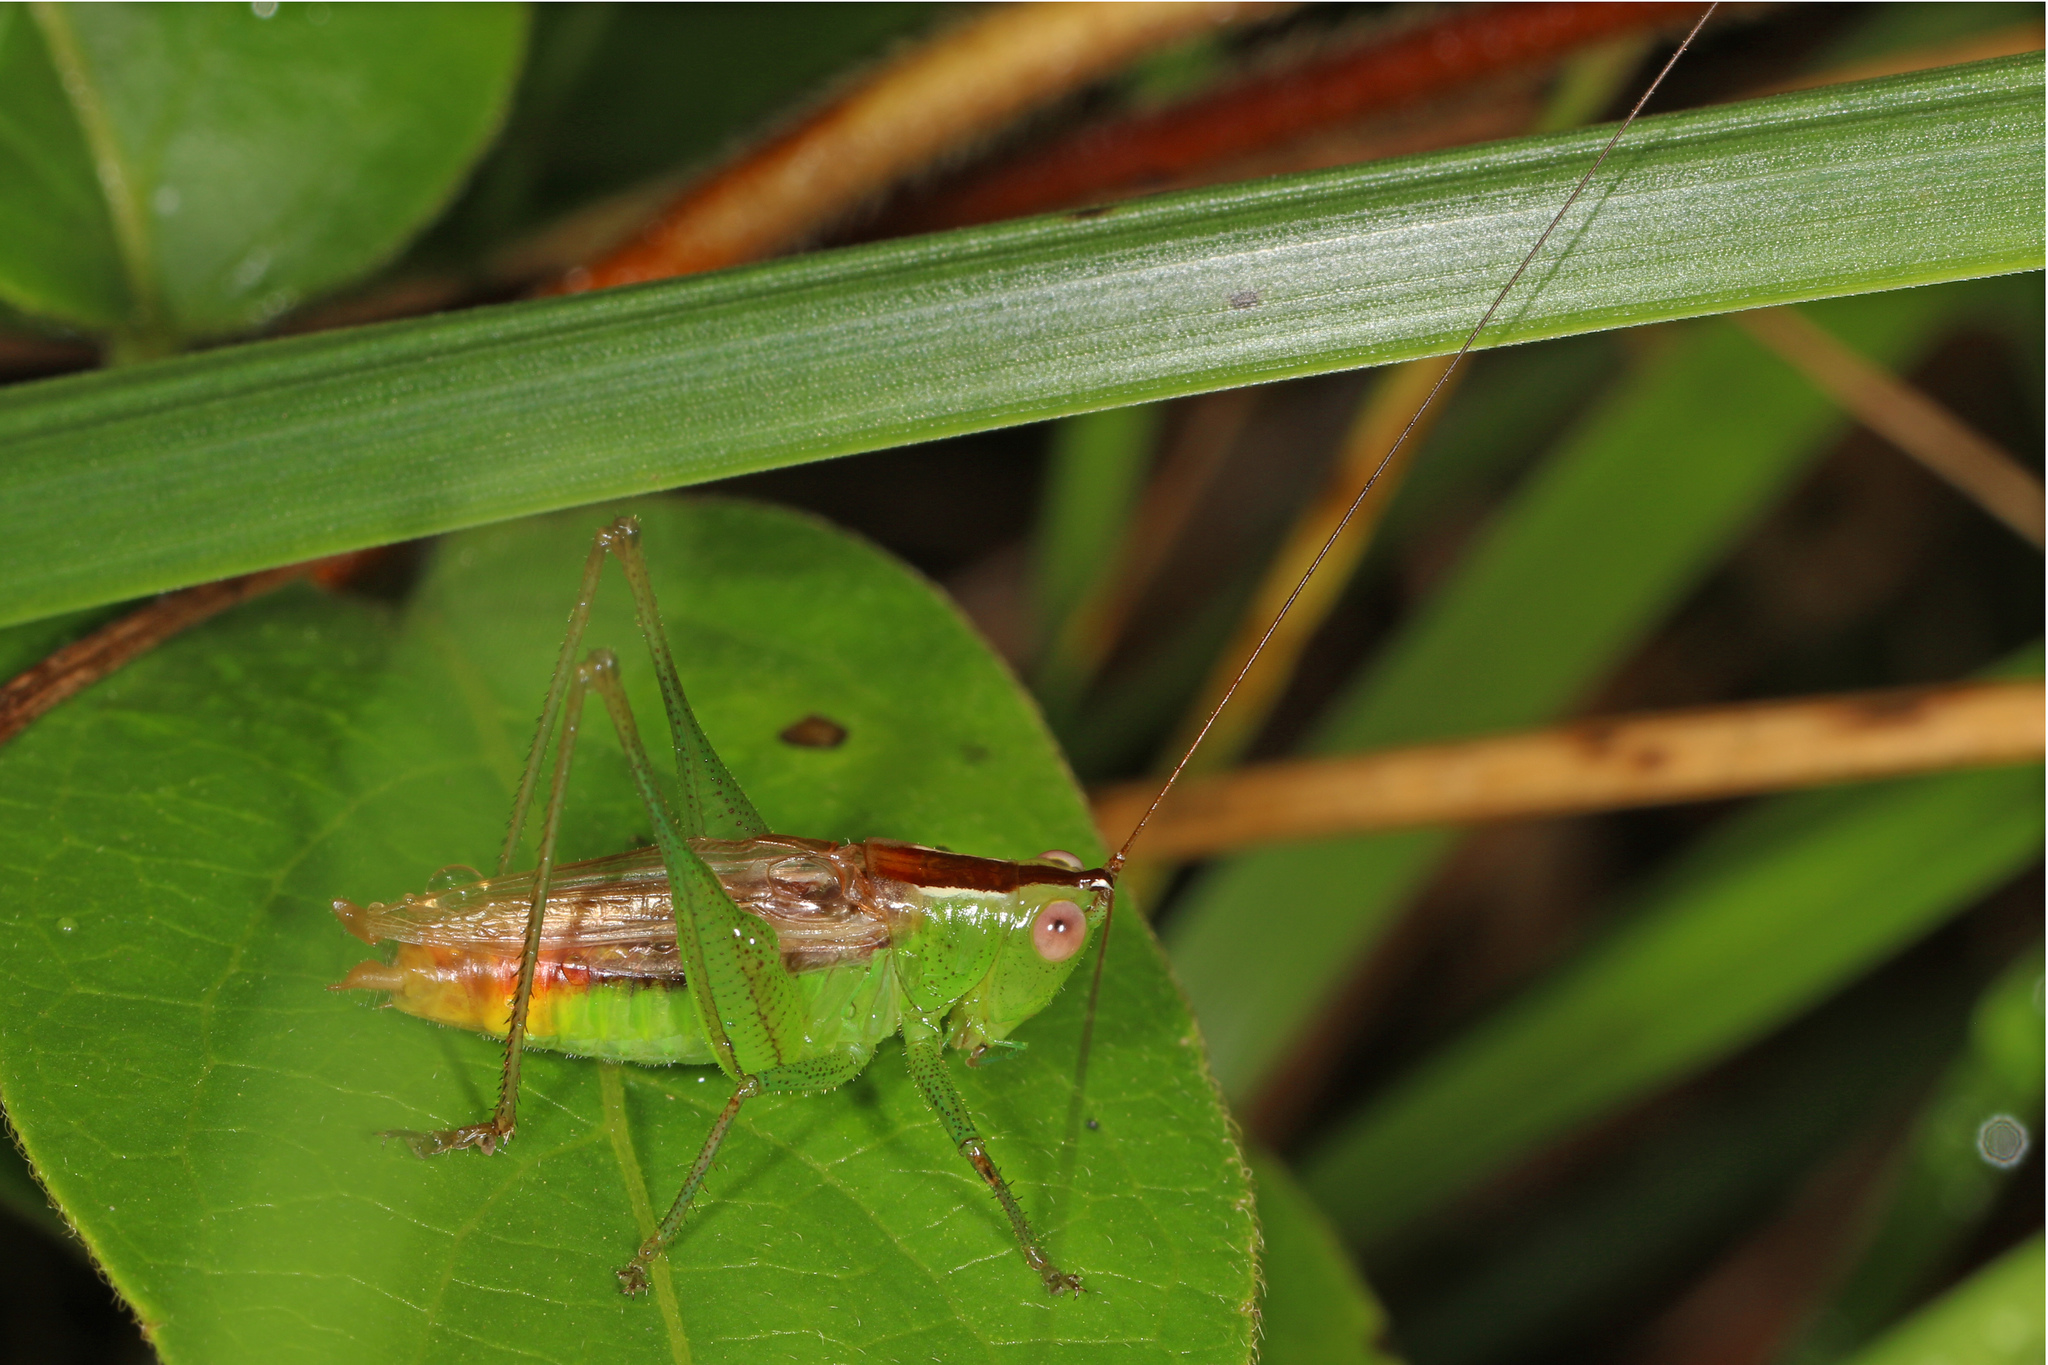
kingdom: Animalia
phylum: Arthropoda
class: Insecta
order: Orthoptera
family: Tettigoniidae
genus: Conocephalus
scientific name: Conocephalus brevipennis
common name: Short-winged meadow katydid
